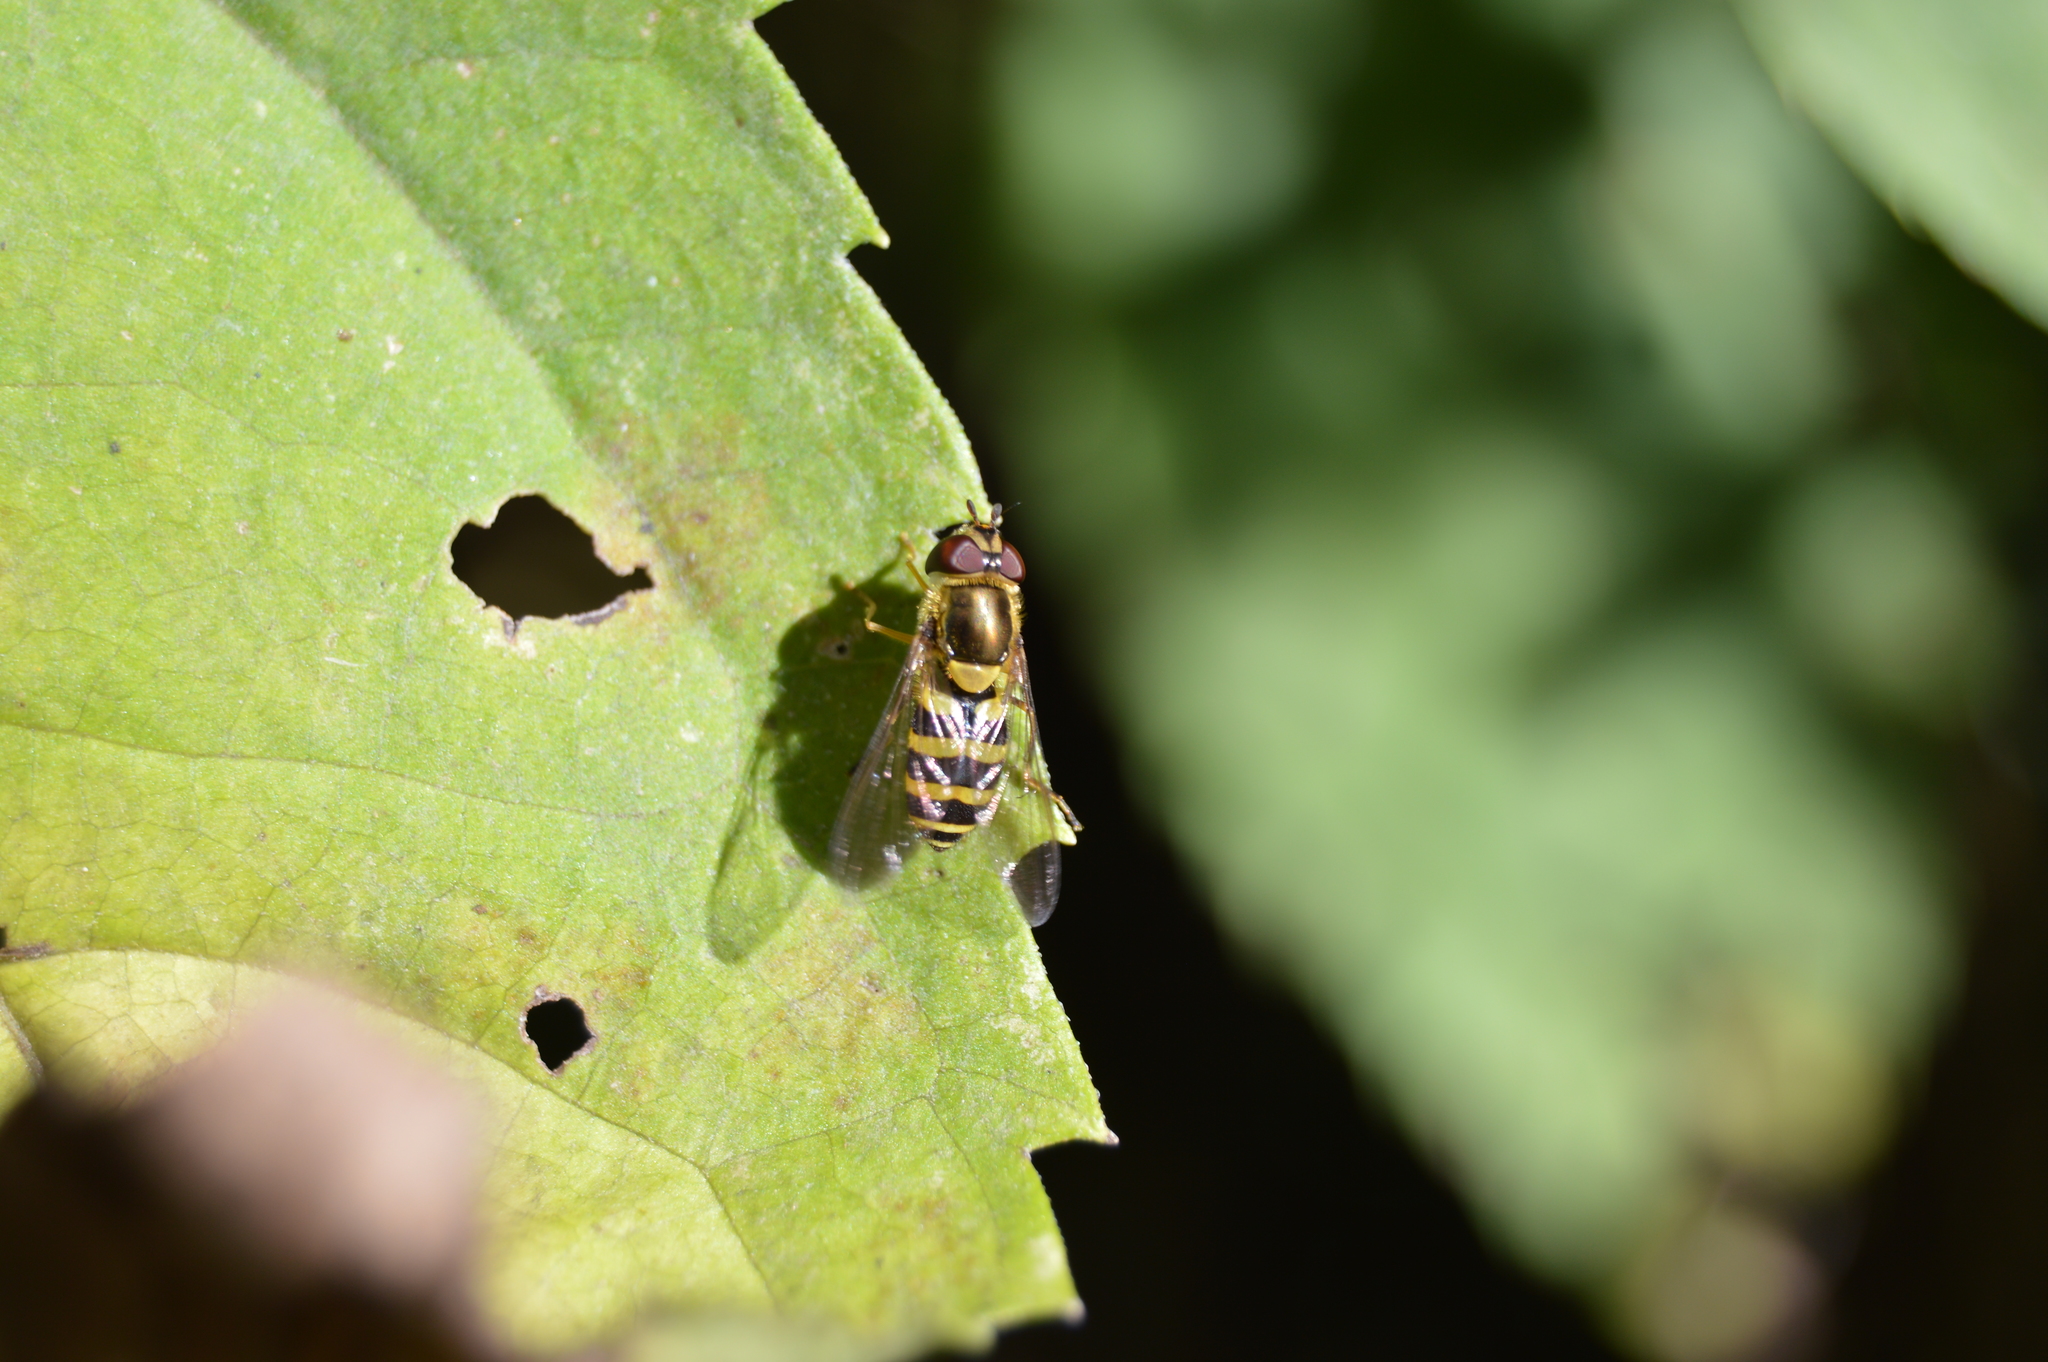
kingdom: Animalia
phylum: Arthropoda
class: Insecta
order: Diptera
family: Syrphidae
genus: Syrphus
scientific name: Syrphus
